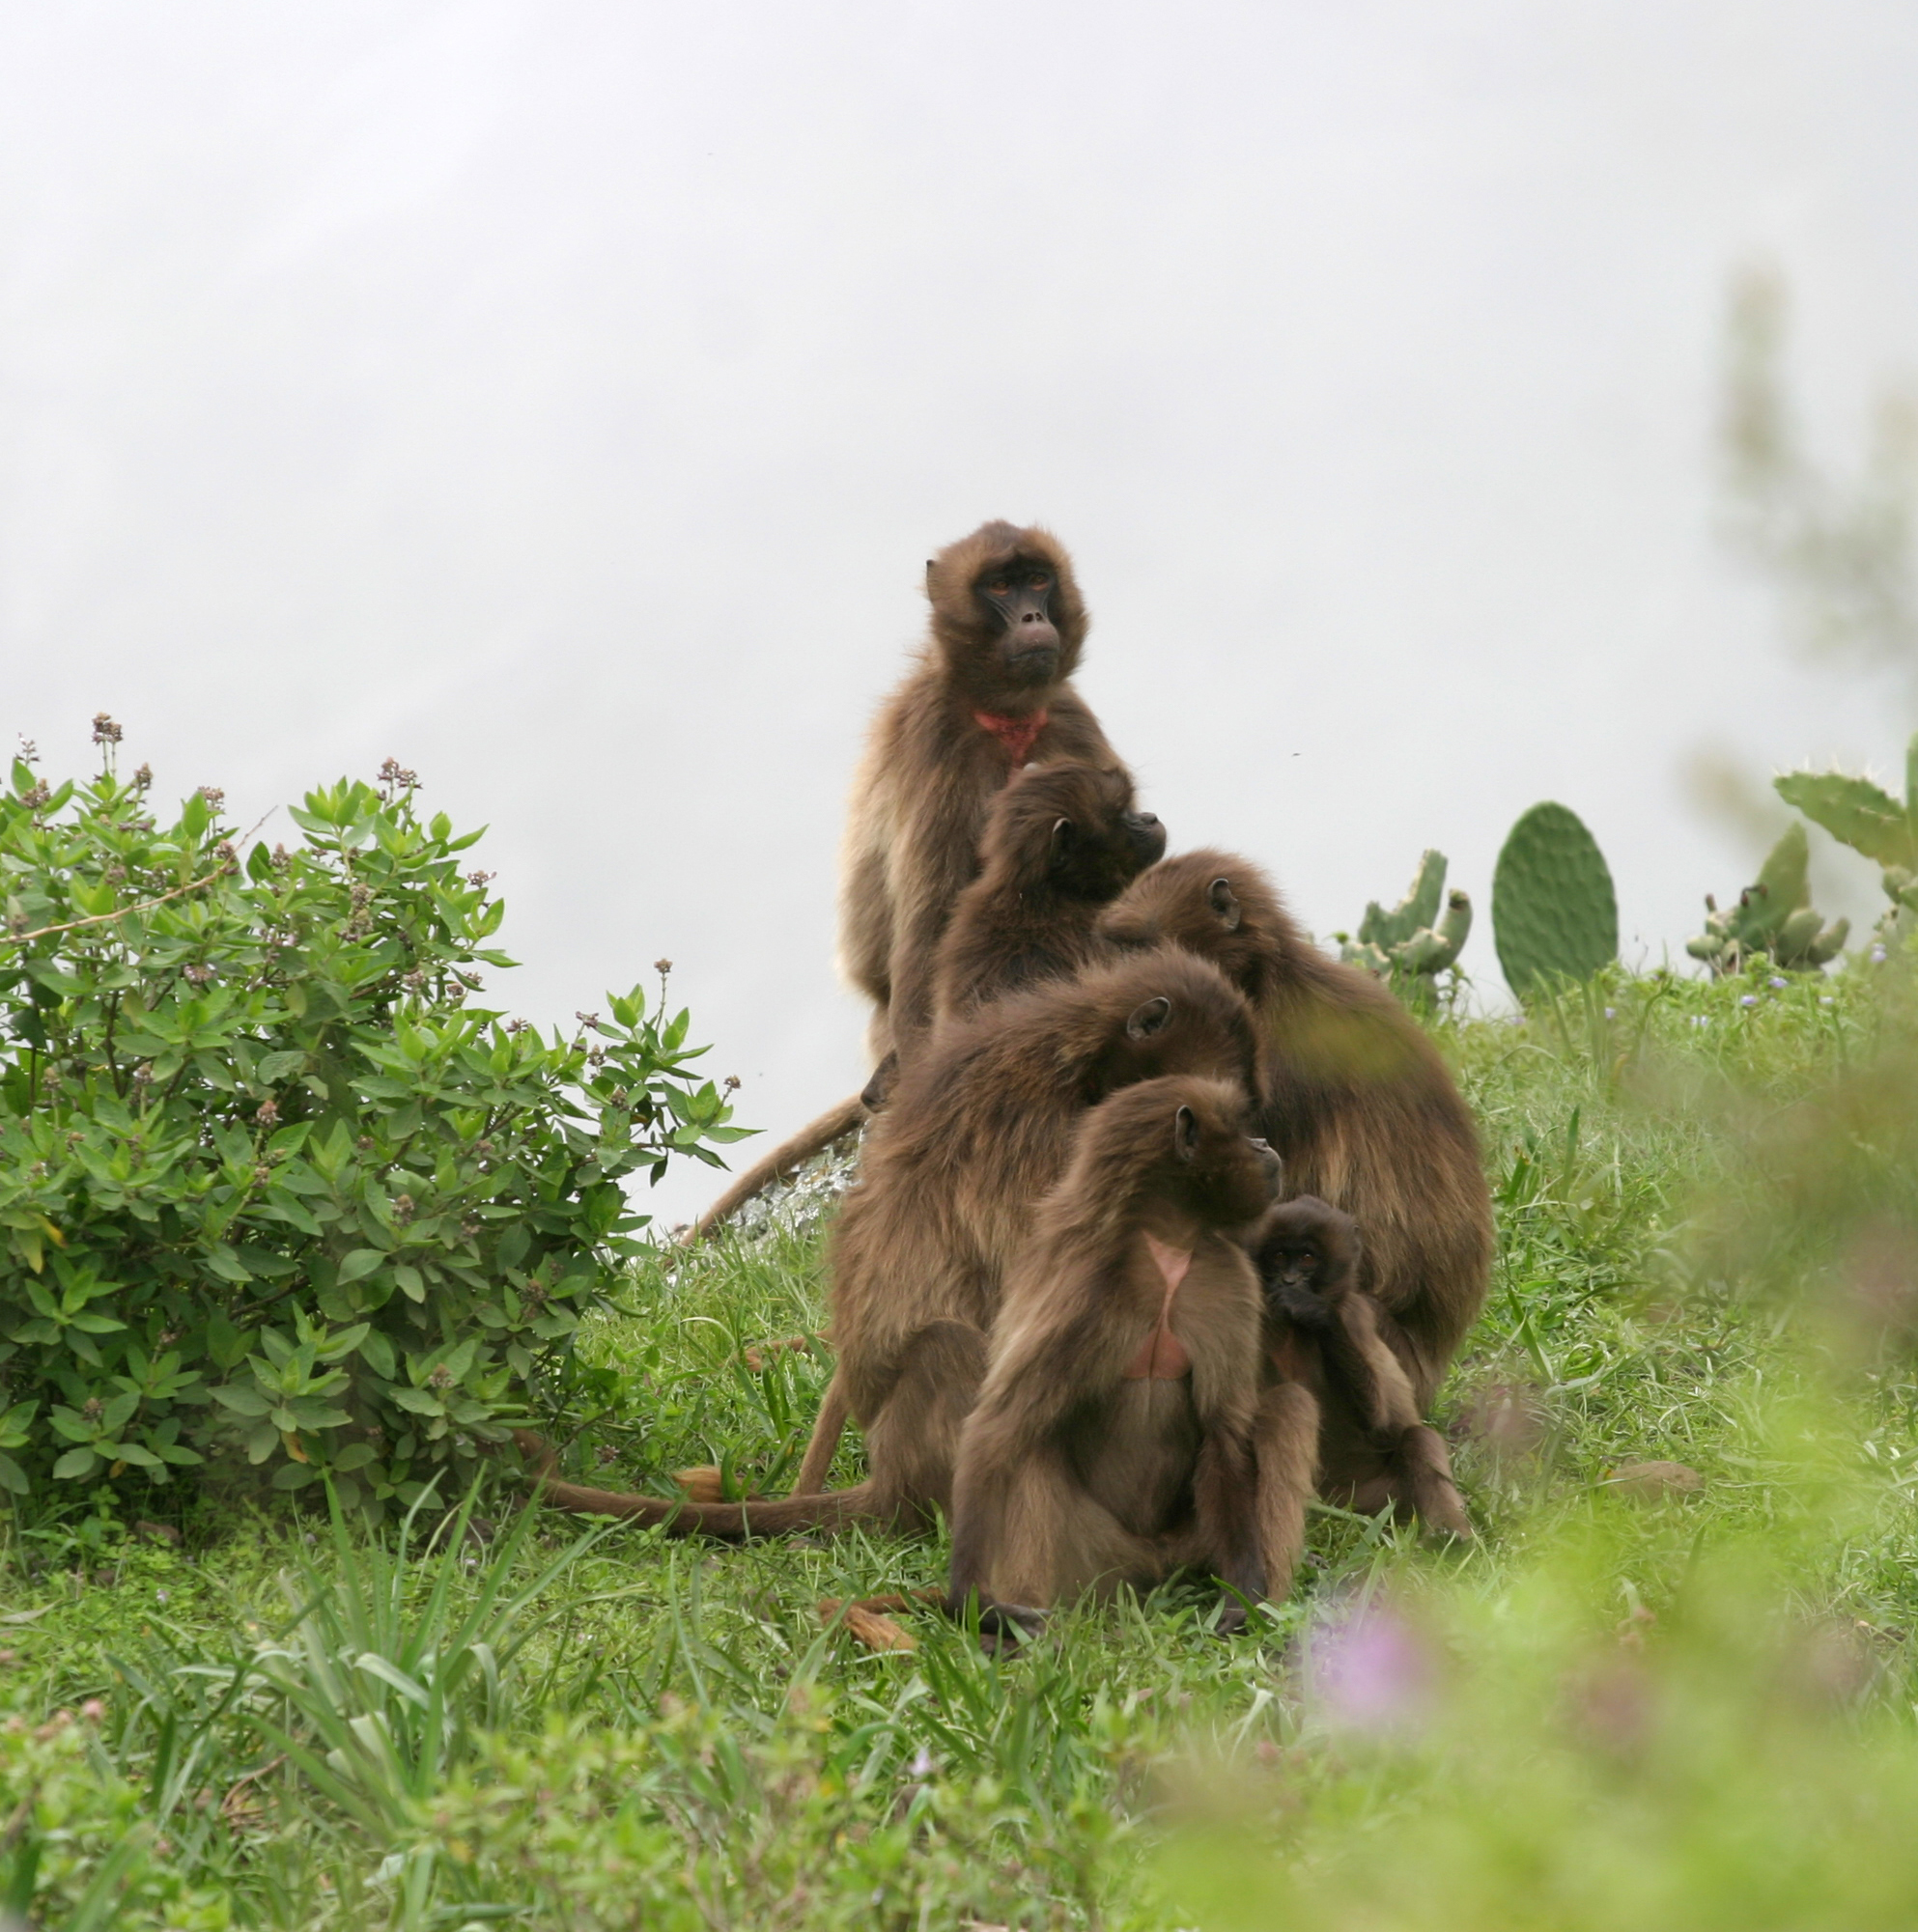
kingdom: Animalia
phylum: Chordata
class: Mammalia
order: Primates
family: Cercopithecidae
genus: Theropithecus
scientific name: Theropithecus gelada
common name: Gelada
